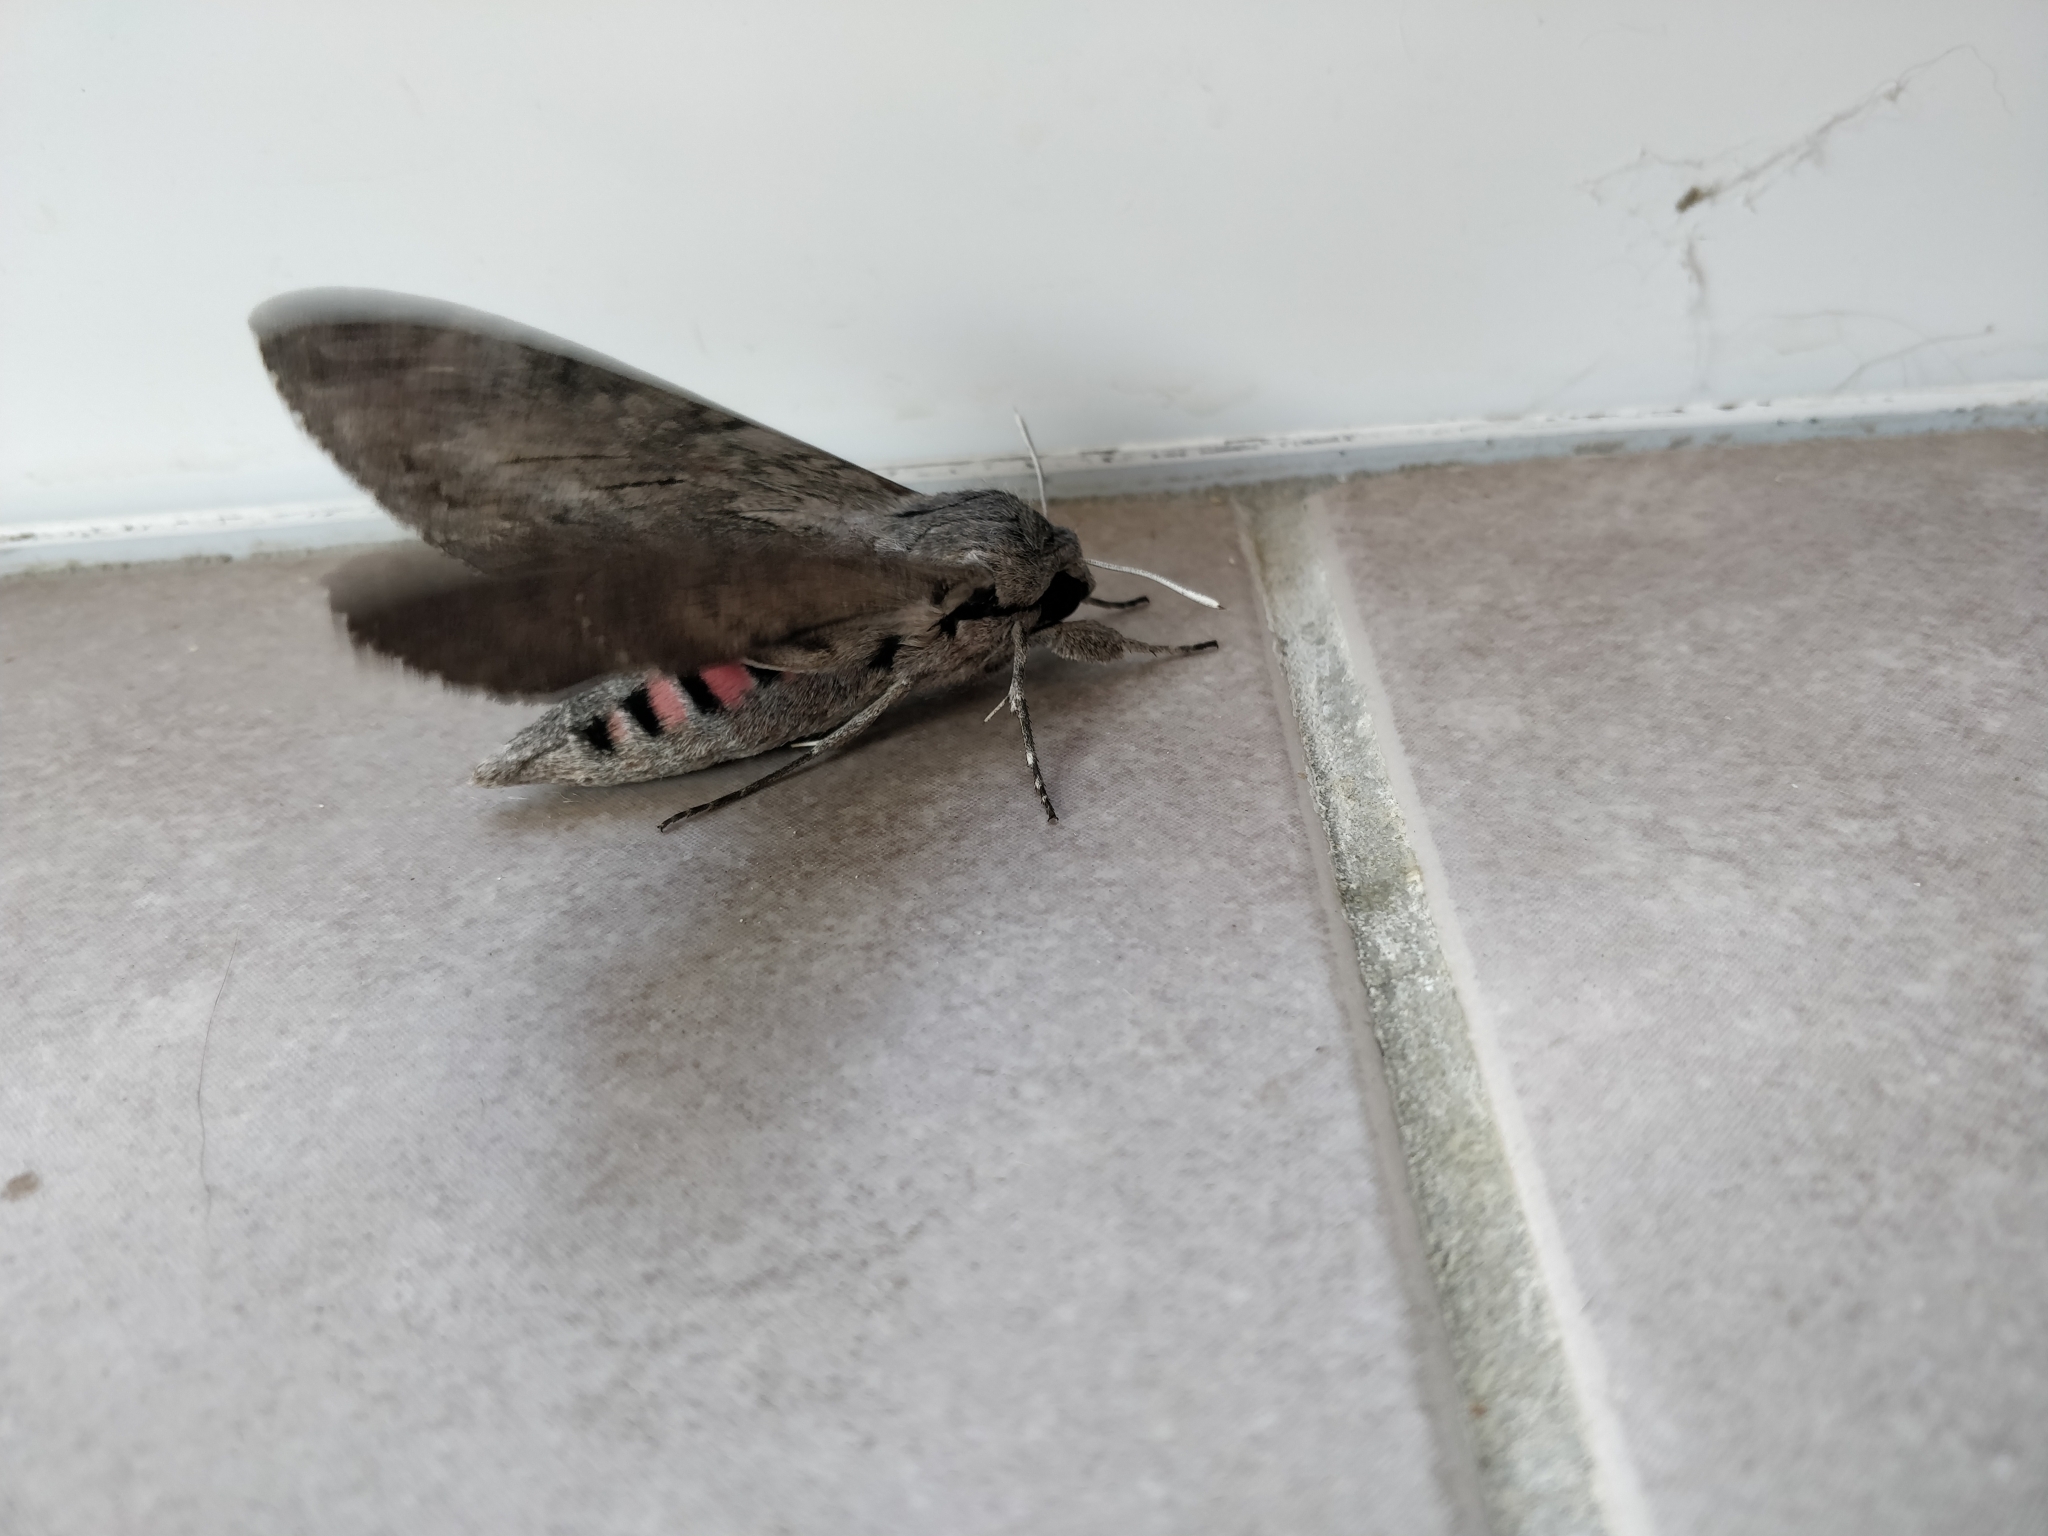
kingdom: Animalia
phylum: Arthropoda
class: Insecta
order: Lepidoptera
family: Sphingidae
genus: Agrius
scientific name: Agrius convolvuli
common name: Convolvulus hawkmoth
